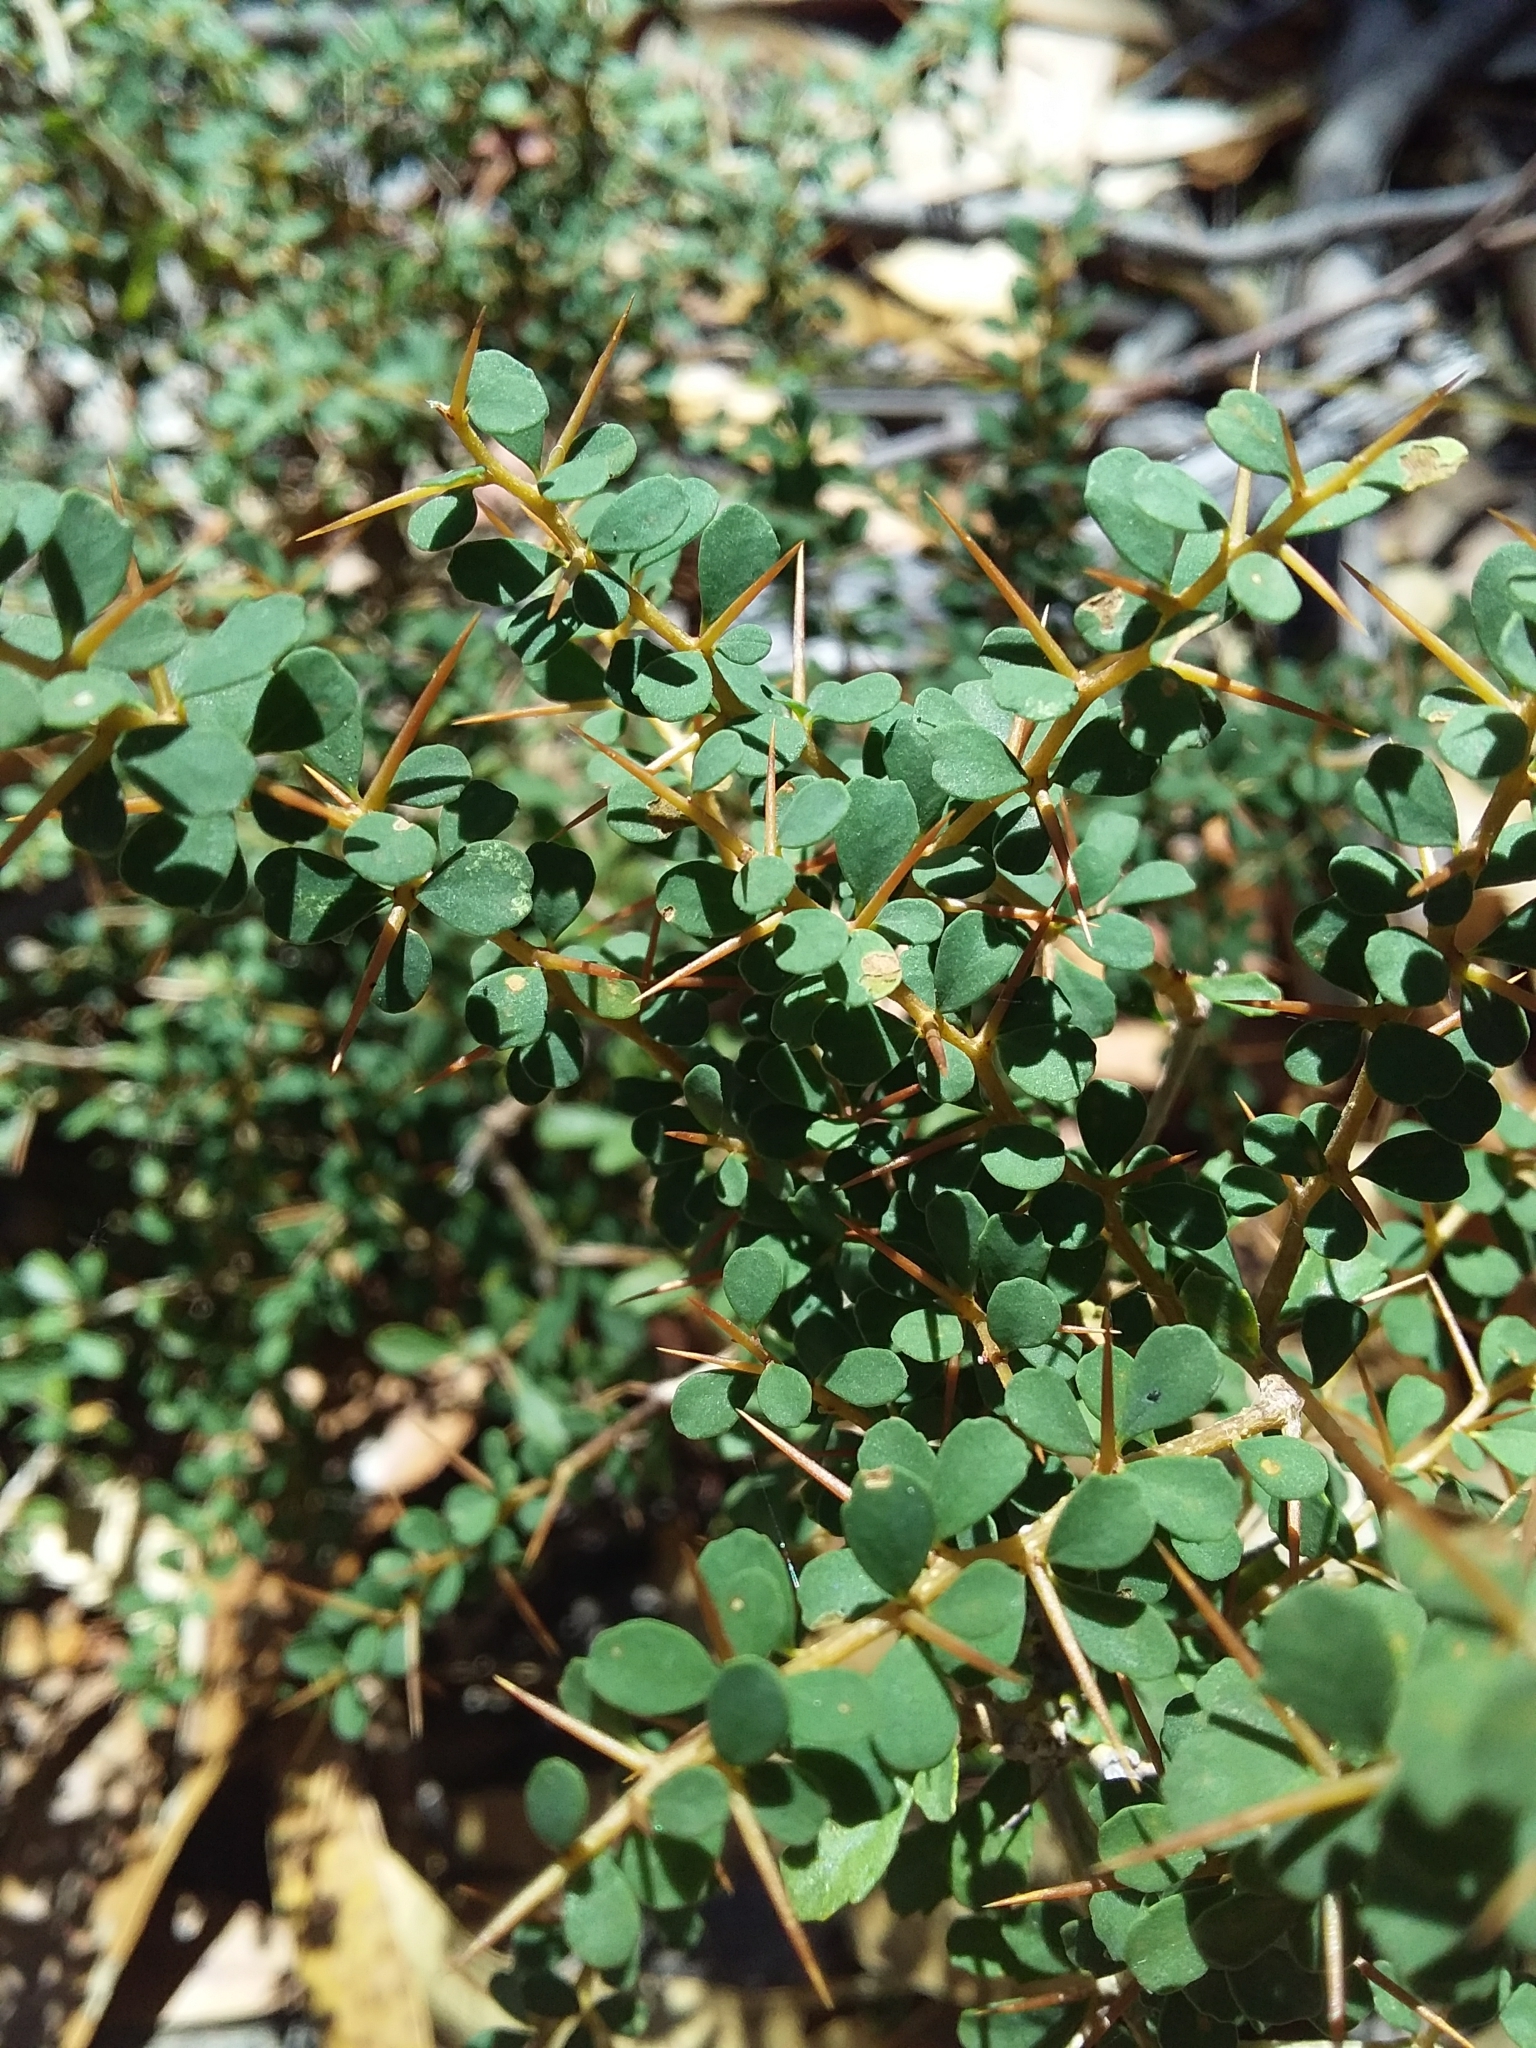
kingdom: Plantae
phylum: Tracheophyta
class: Magnoliopsida
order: Apiales
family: Pittosporaceae
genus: Bursaria
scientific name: Bursaria spinosa
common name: Australian blackthorn
